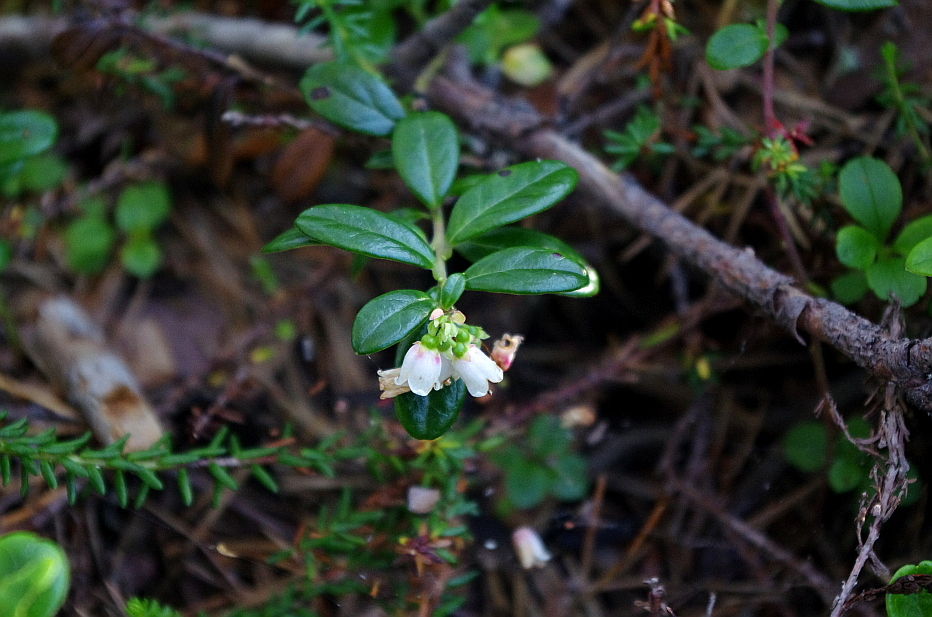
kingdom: Plantae
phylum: Tracheophyta
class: Magnoliopsida
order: Ericales
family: Ericaceae
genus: Vaccinium
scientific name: Vaccinium vitis-idaea
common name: Cowberry
